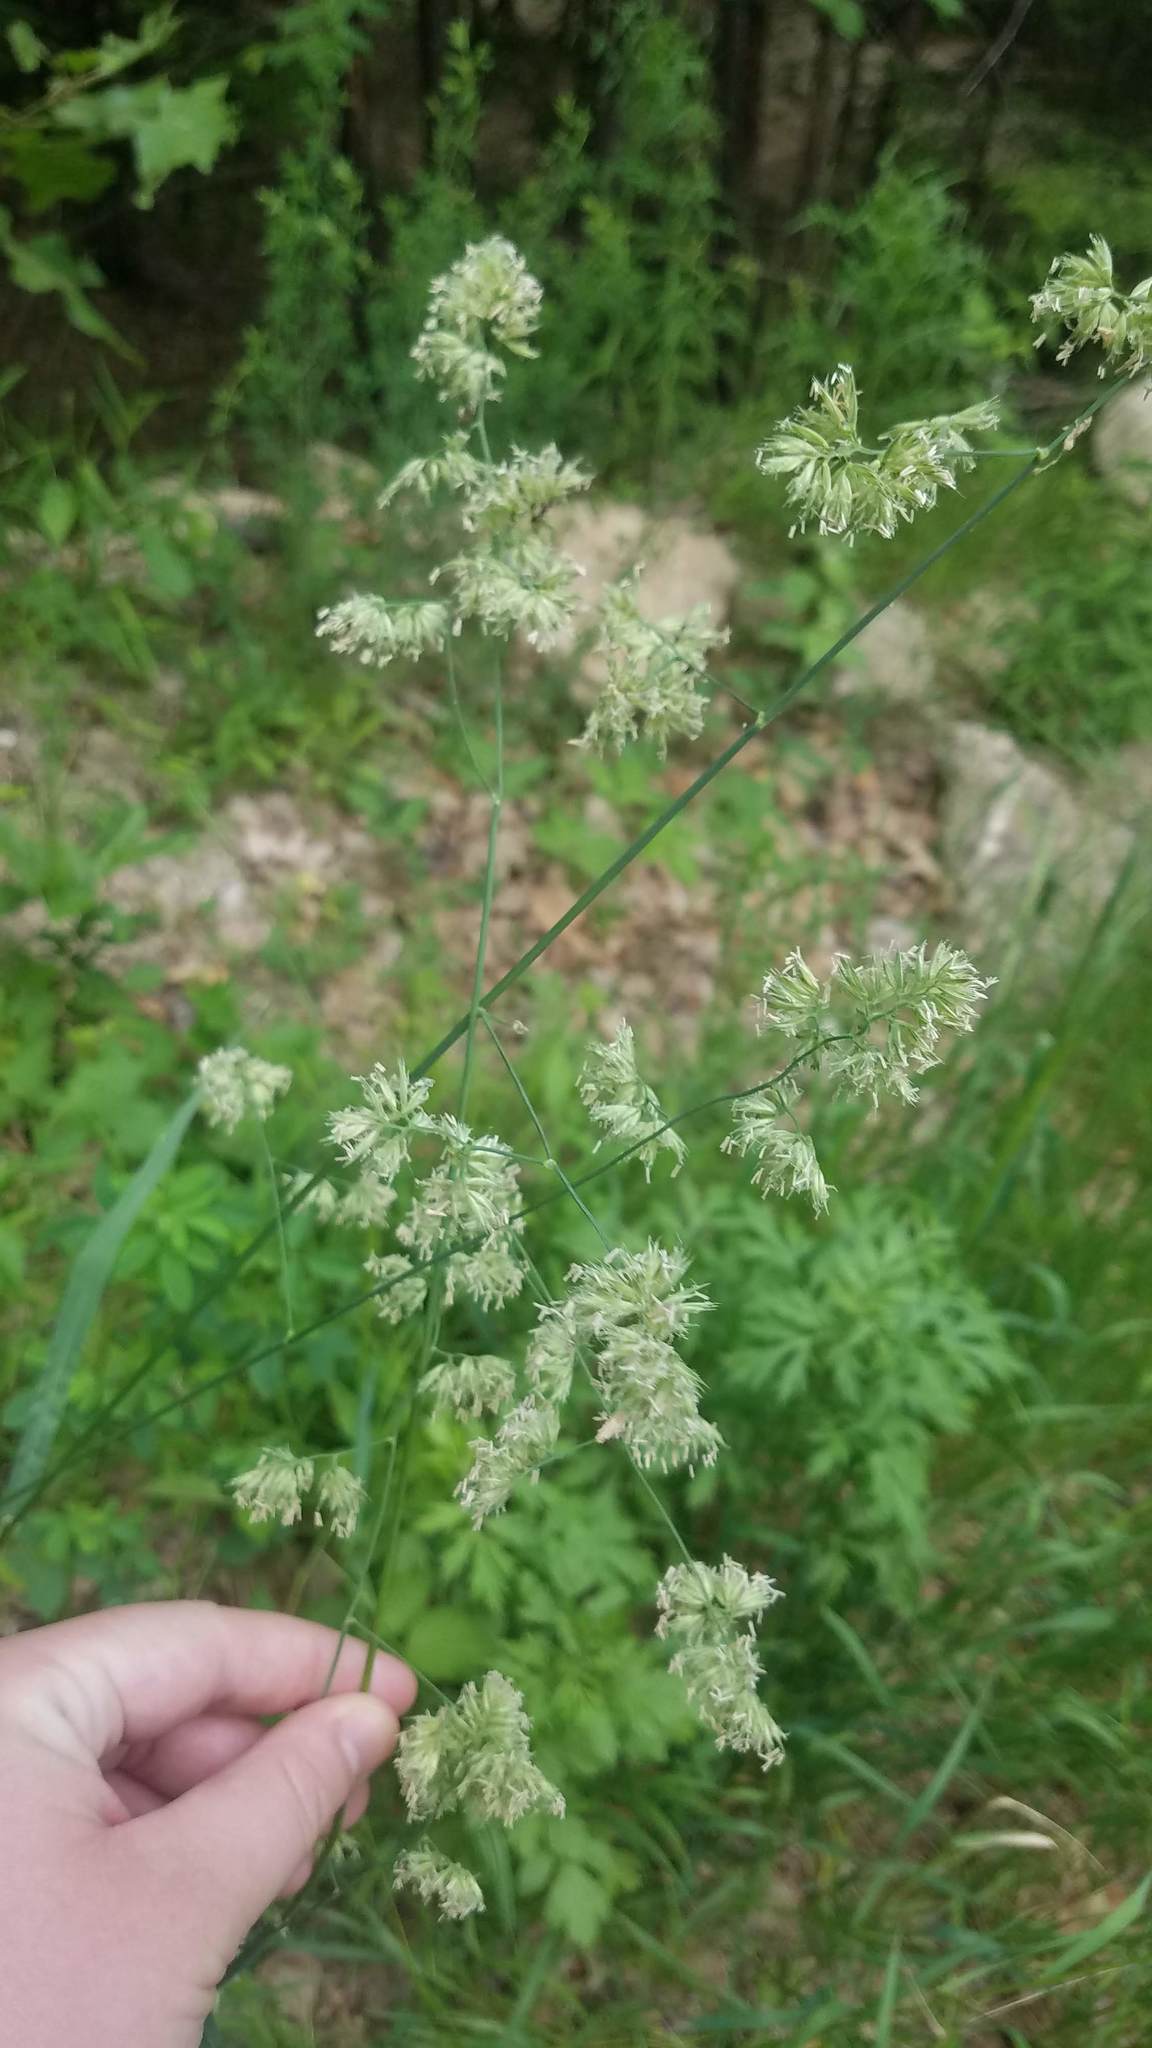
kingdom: Plantae
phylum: Tracheophyta
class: Liliopsida
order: Poales
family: Poaceae
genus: Dactylis
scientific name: Dactylis glomerata
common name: Orchardgrass
